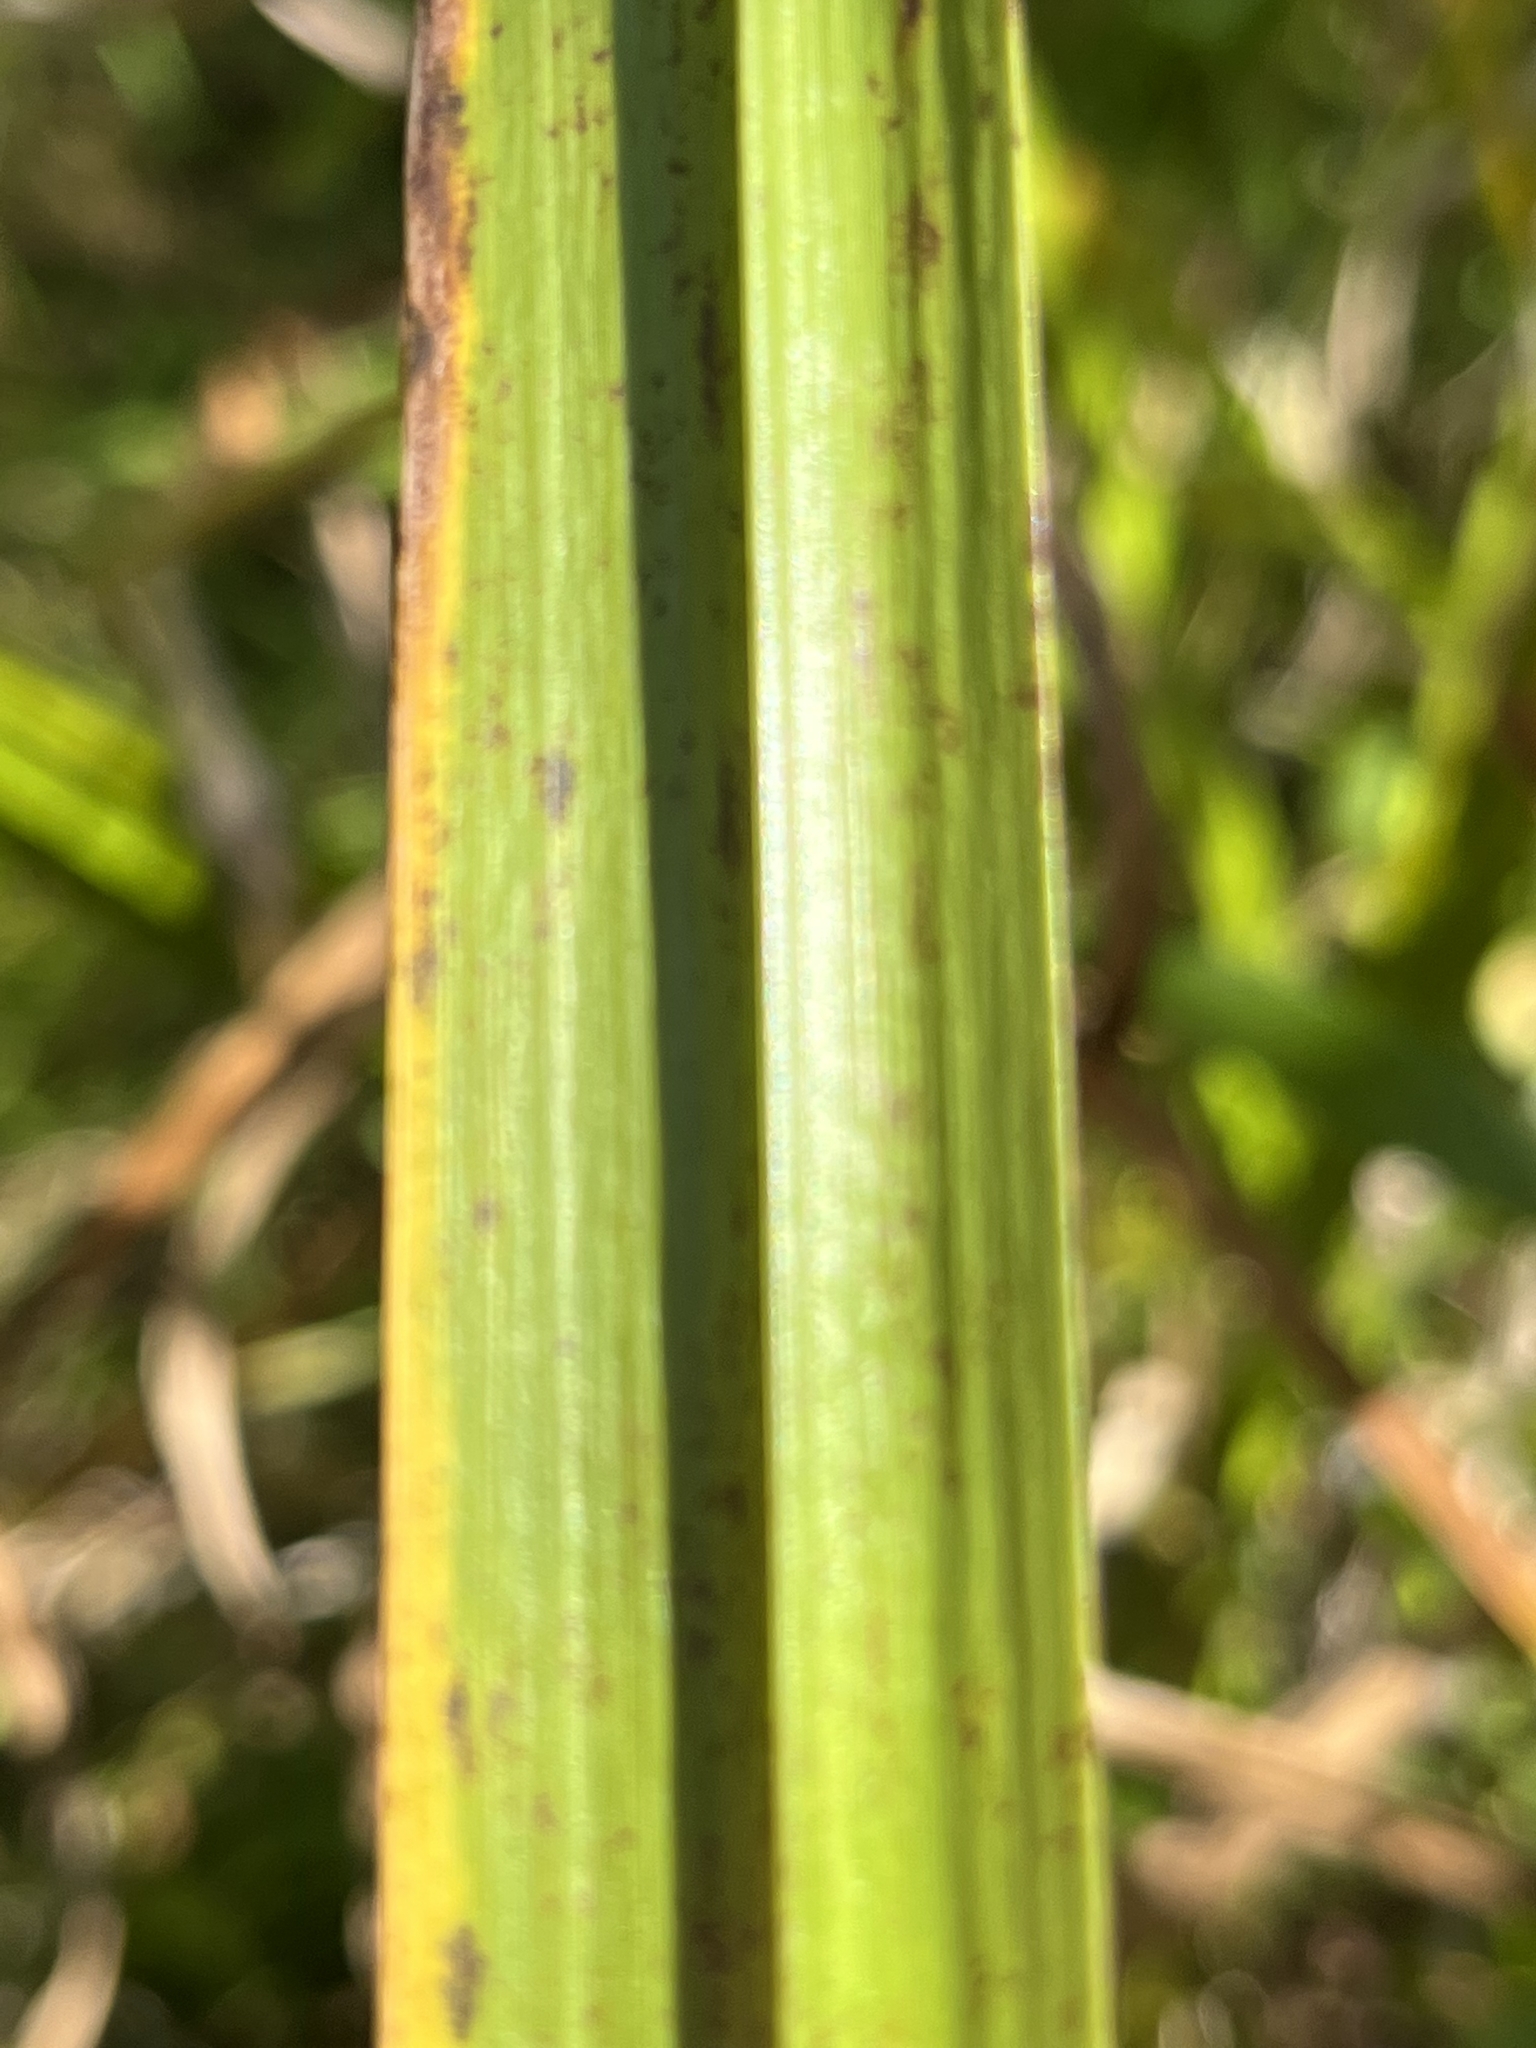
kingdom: Plantae
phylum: Tracheophyta
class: Liliopsida
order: Acorales
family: Acoraceae
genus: Acorus
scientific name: Acorus calamus
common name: Sweet-flag
